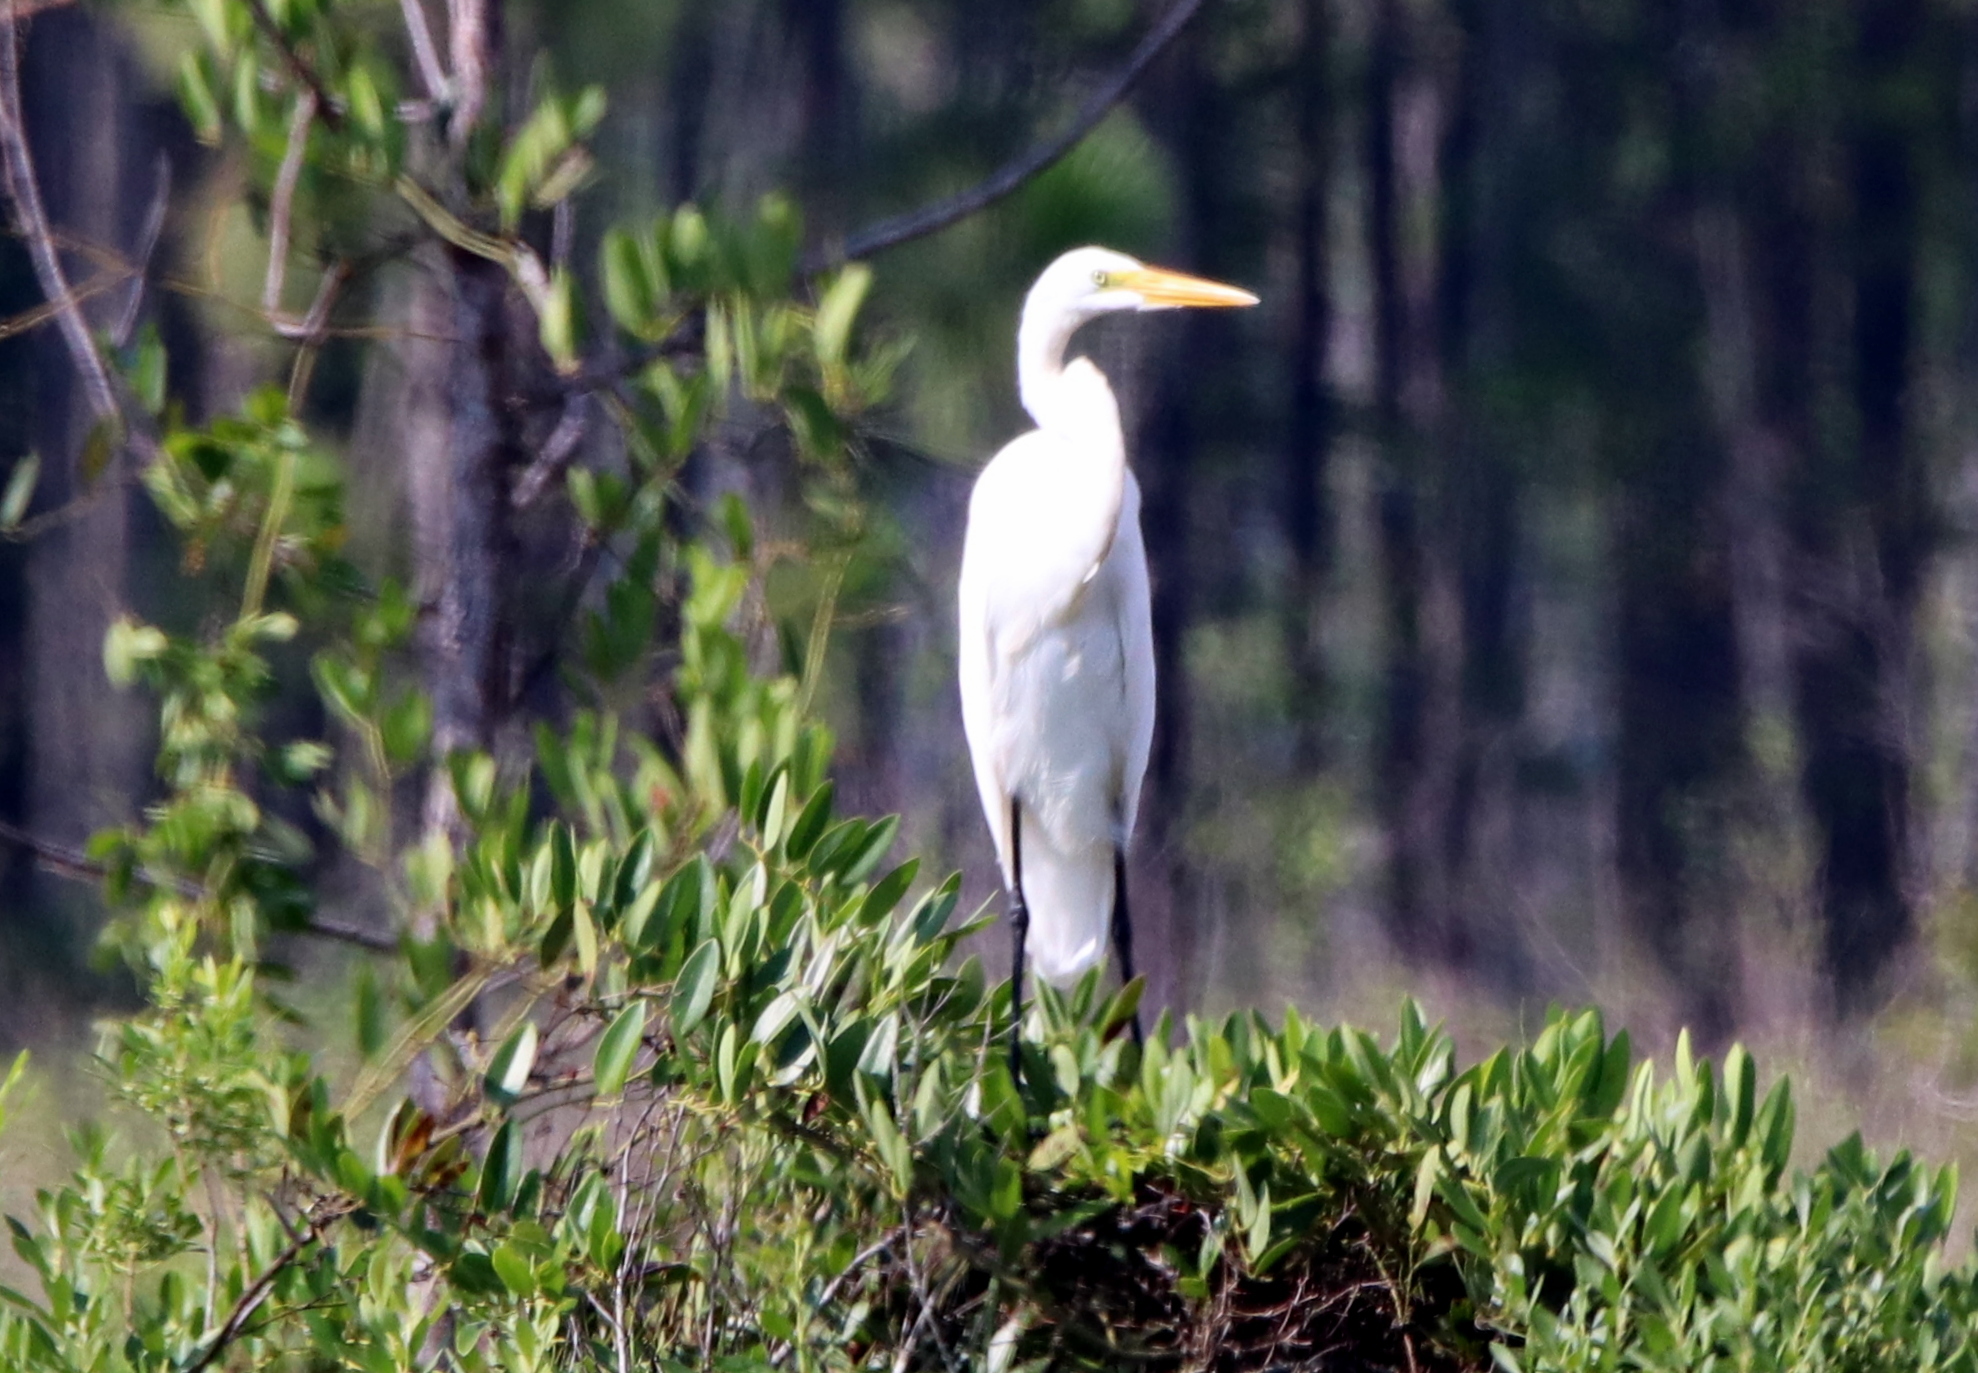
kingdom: Animalia
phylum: Chordata
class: Aves
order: Pelecaniformes
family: Ardeidae
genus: Ardea
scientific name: Ardea alba
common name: Great egret
